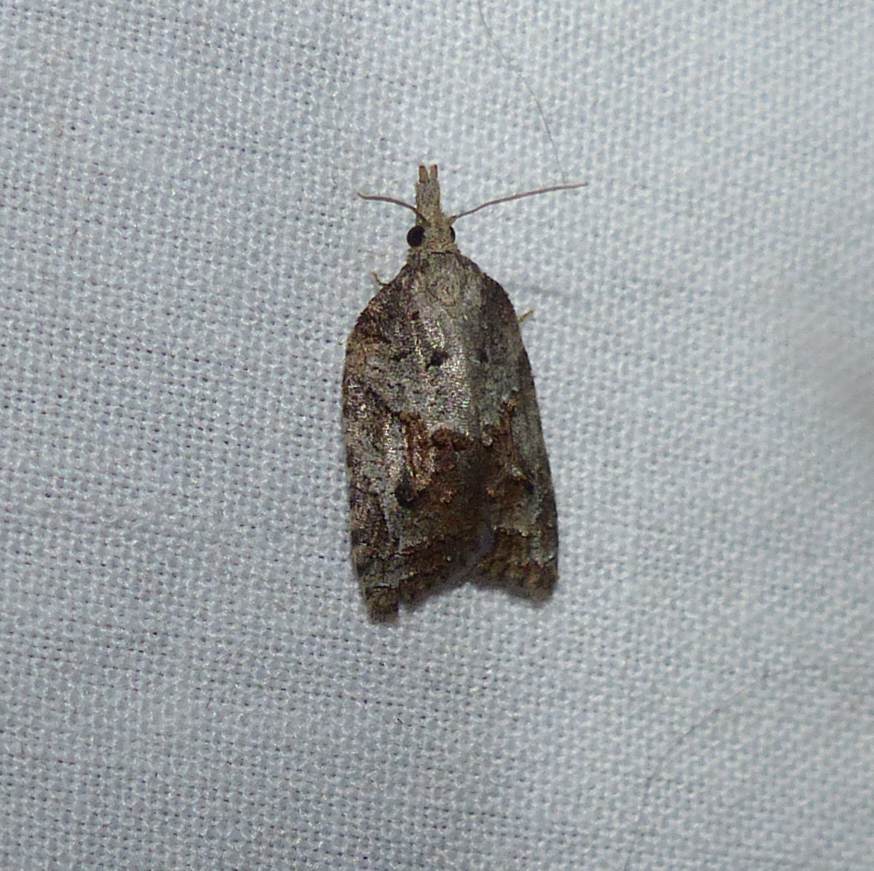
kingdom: Animalia
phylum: Arthropoda
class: Insecta
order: Lepidoptera
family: Tortricidae
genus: Platynota
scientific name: Platynota idaeusalis
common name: Tufted apple bud moth
